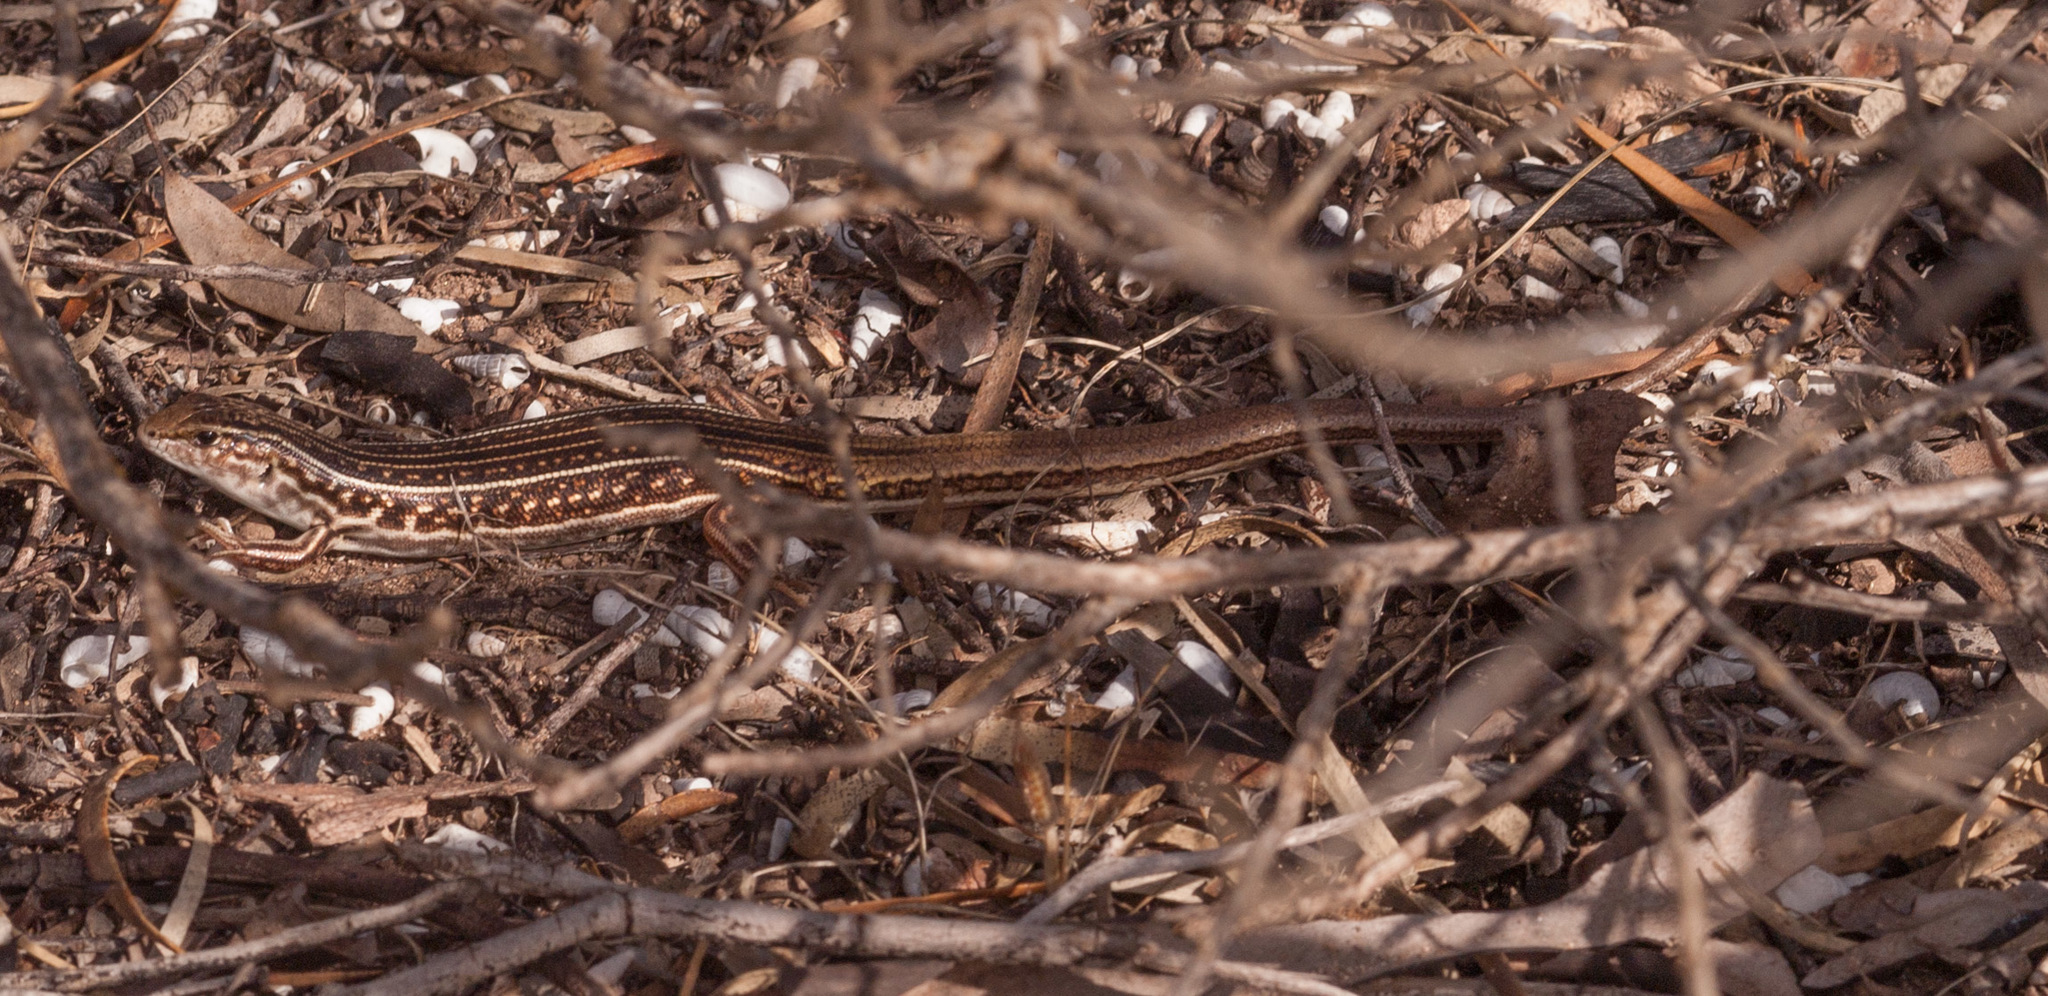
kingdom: Animalia
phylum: Chordata
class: Squamata
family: Scincidae
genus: Ctenotus
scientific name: Ctenotus orientalis
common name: Oriental ctenotus
